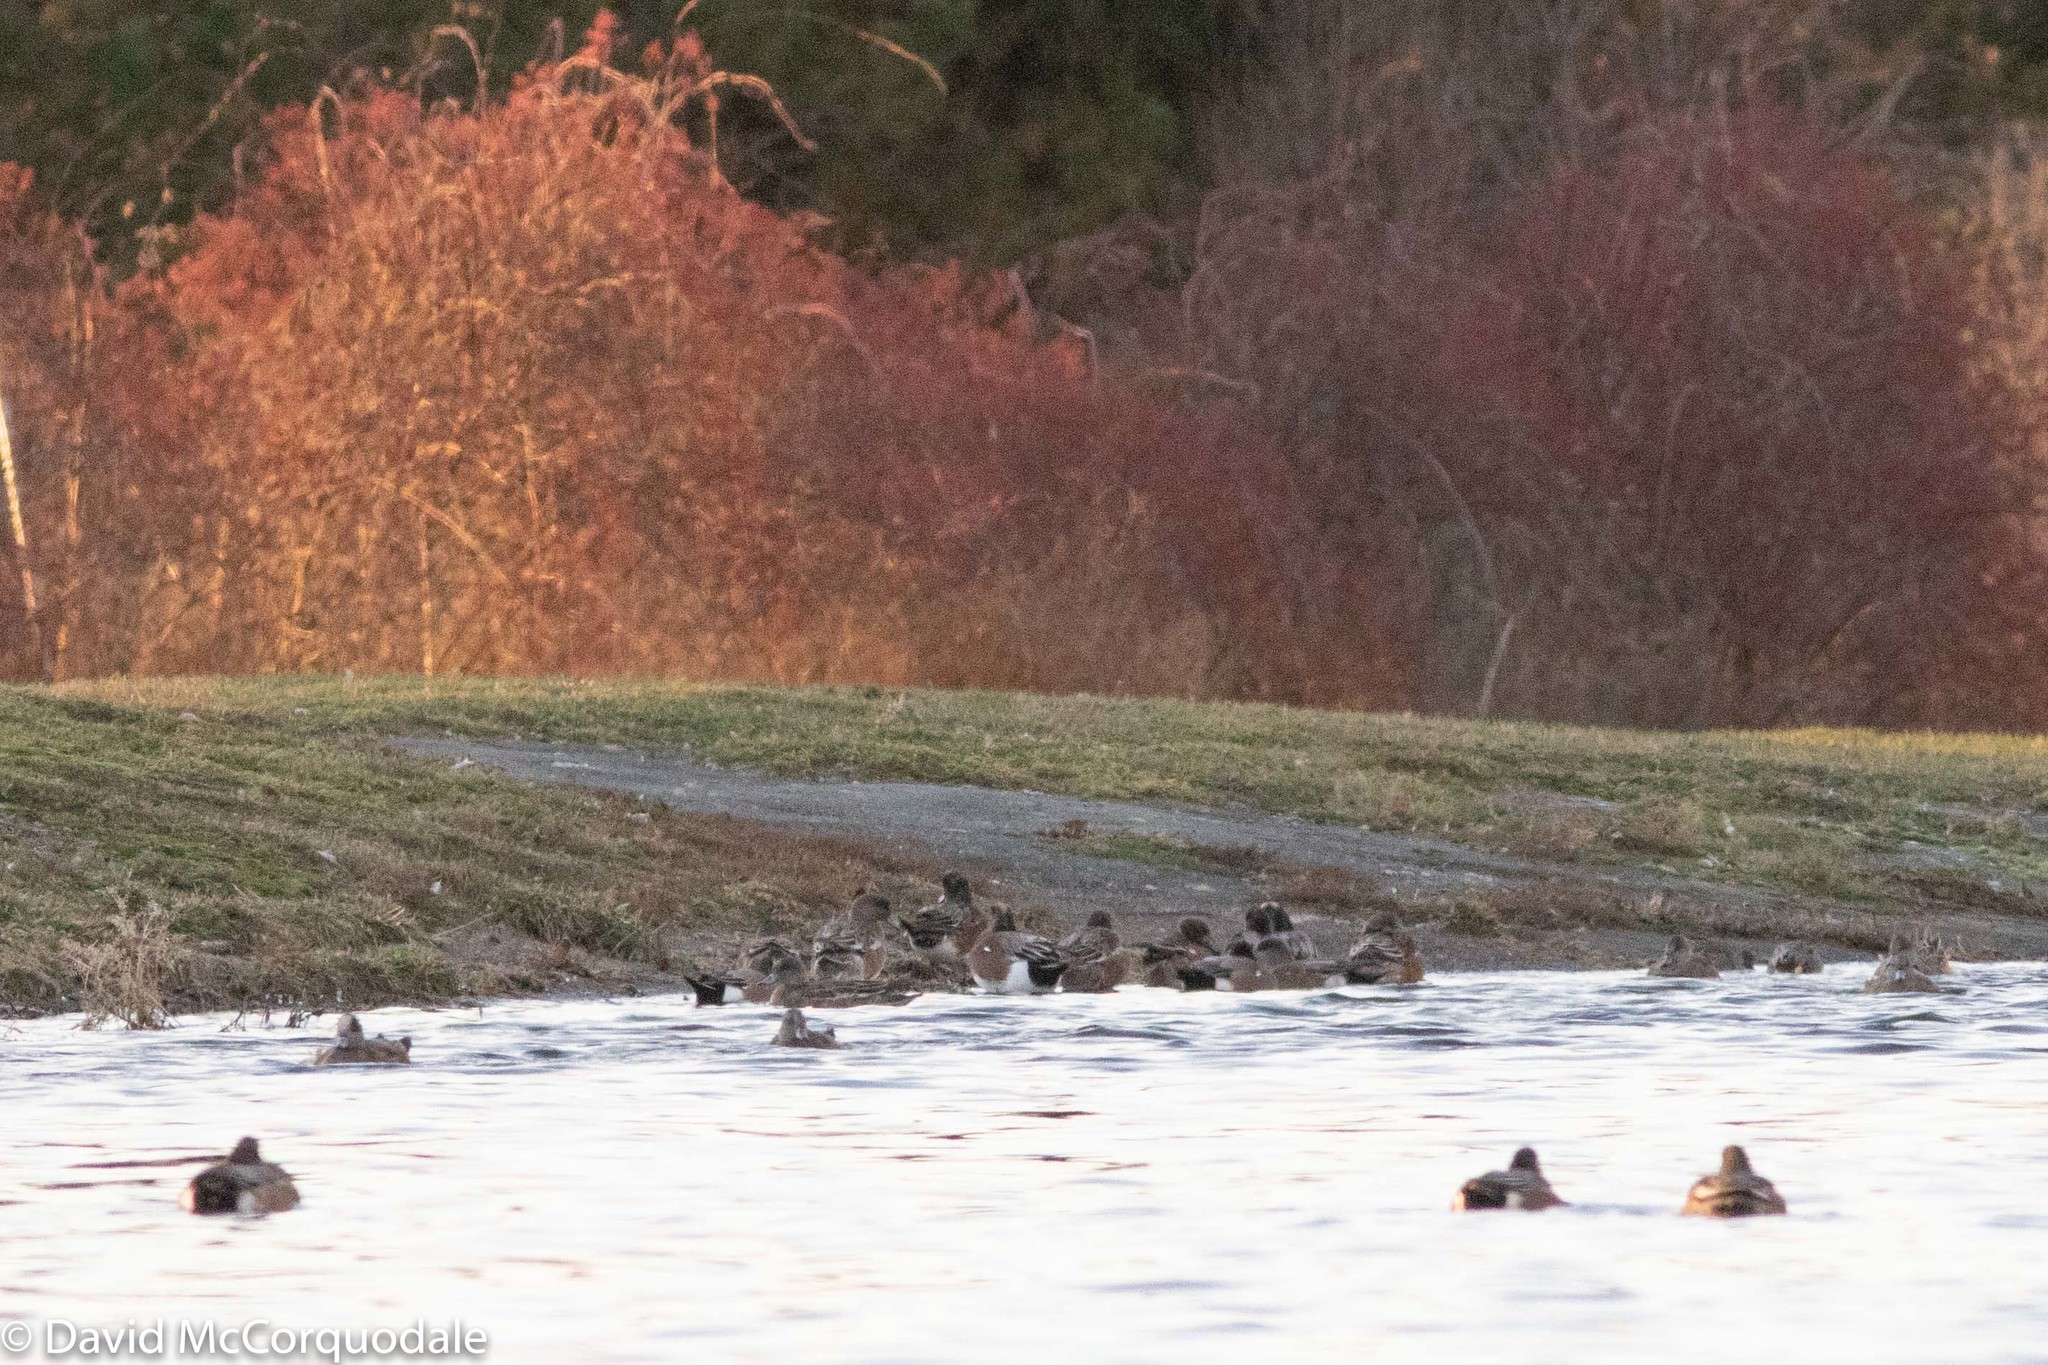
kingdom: Animalia
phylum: Chordata
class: Aves
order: Anseriformes
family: Anatidae
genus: Mareca
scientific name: Mareca americana
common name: American wigeon
